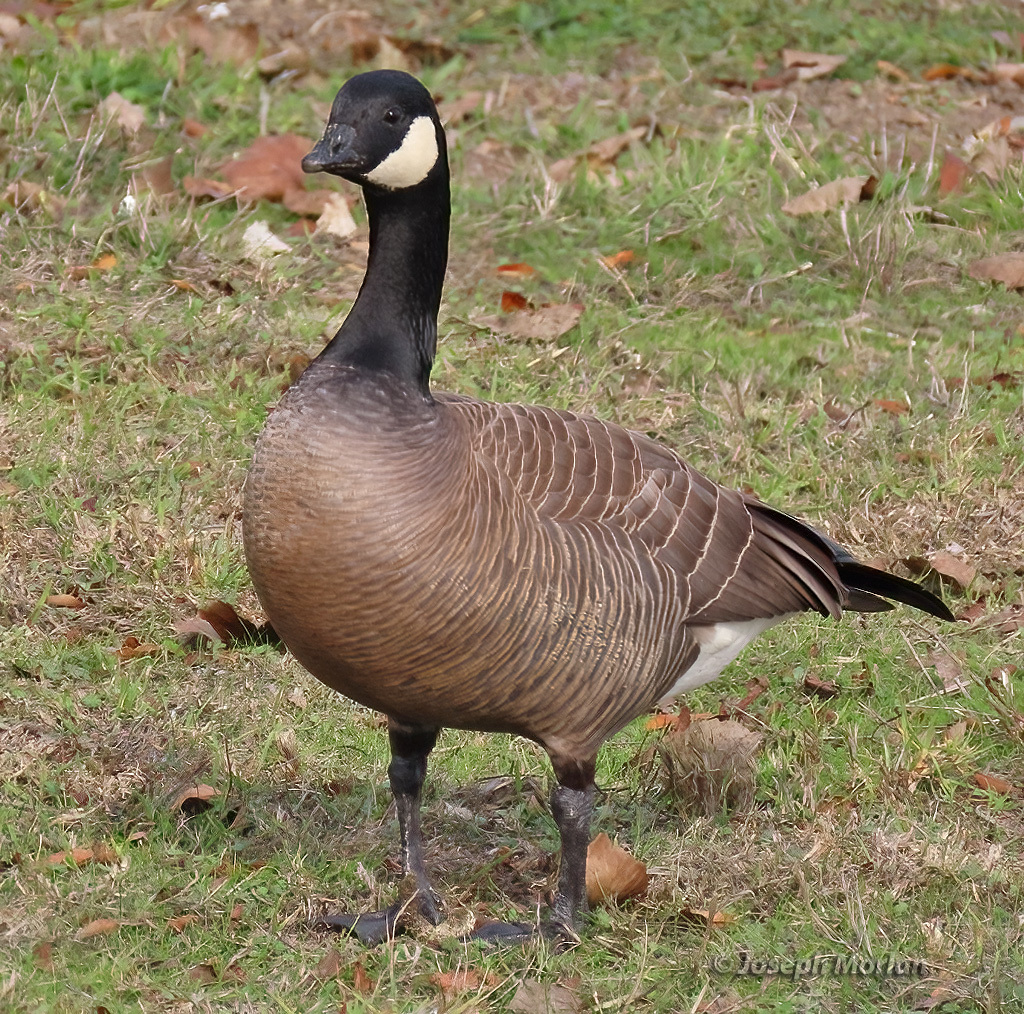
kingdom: Animalia
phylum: Chordata
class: Aves
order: Anseriformes
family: Anatidae
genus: Branta
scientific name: Branta hutchinsii
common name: Cackling goose
